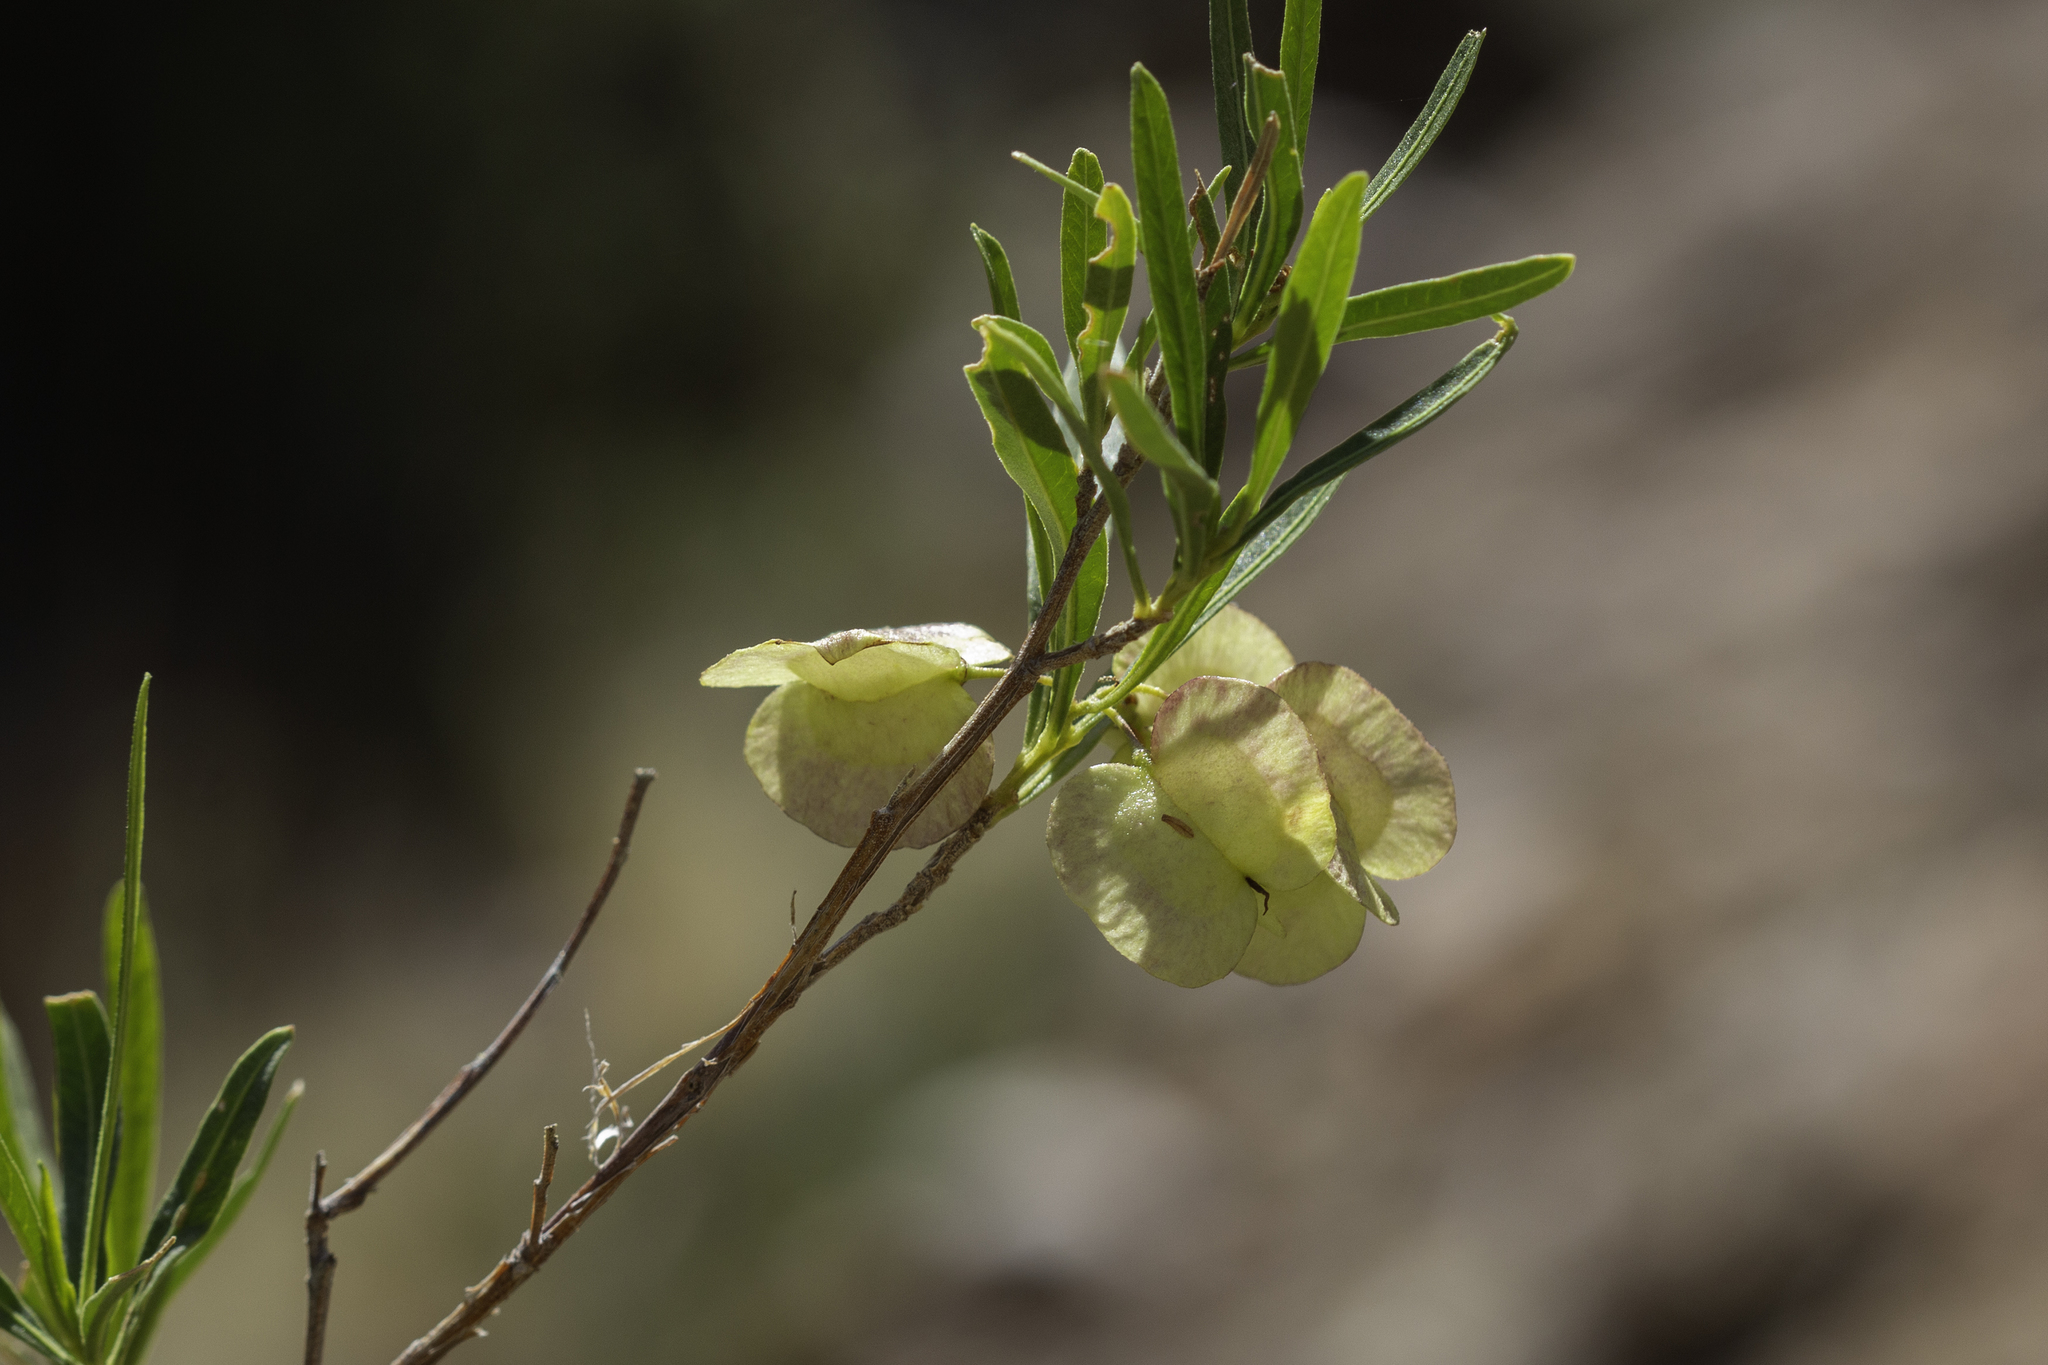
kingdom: Plantae
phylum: Tracheophyta
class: Magnoliopsida
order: Sapindales
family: Sapindaceae
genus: Dodonaea
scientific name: Dodonaea viscosa
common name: Hopbush
